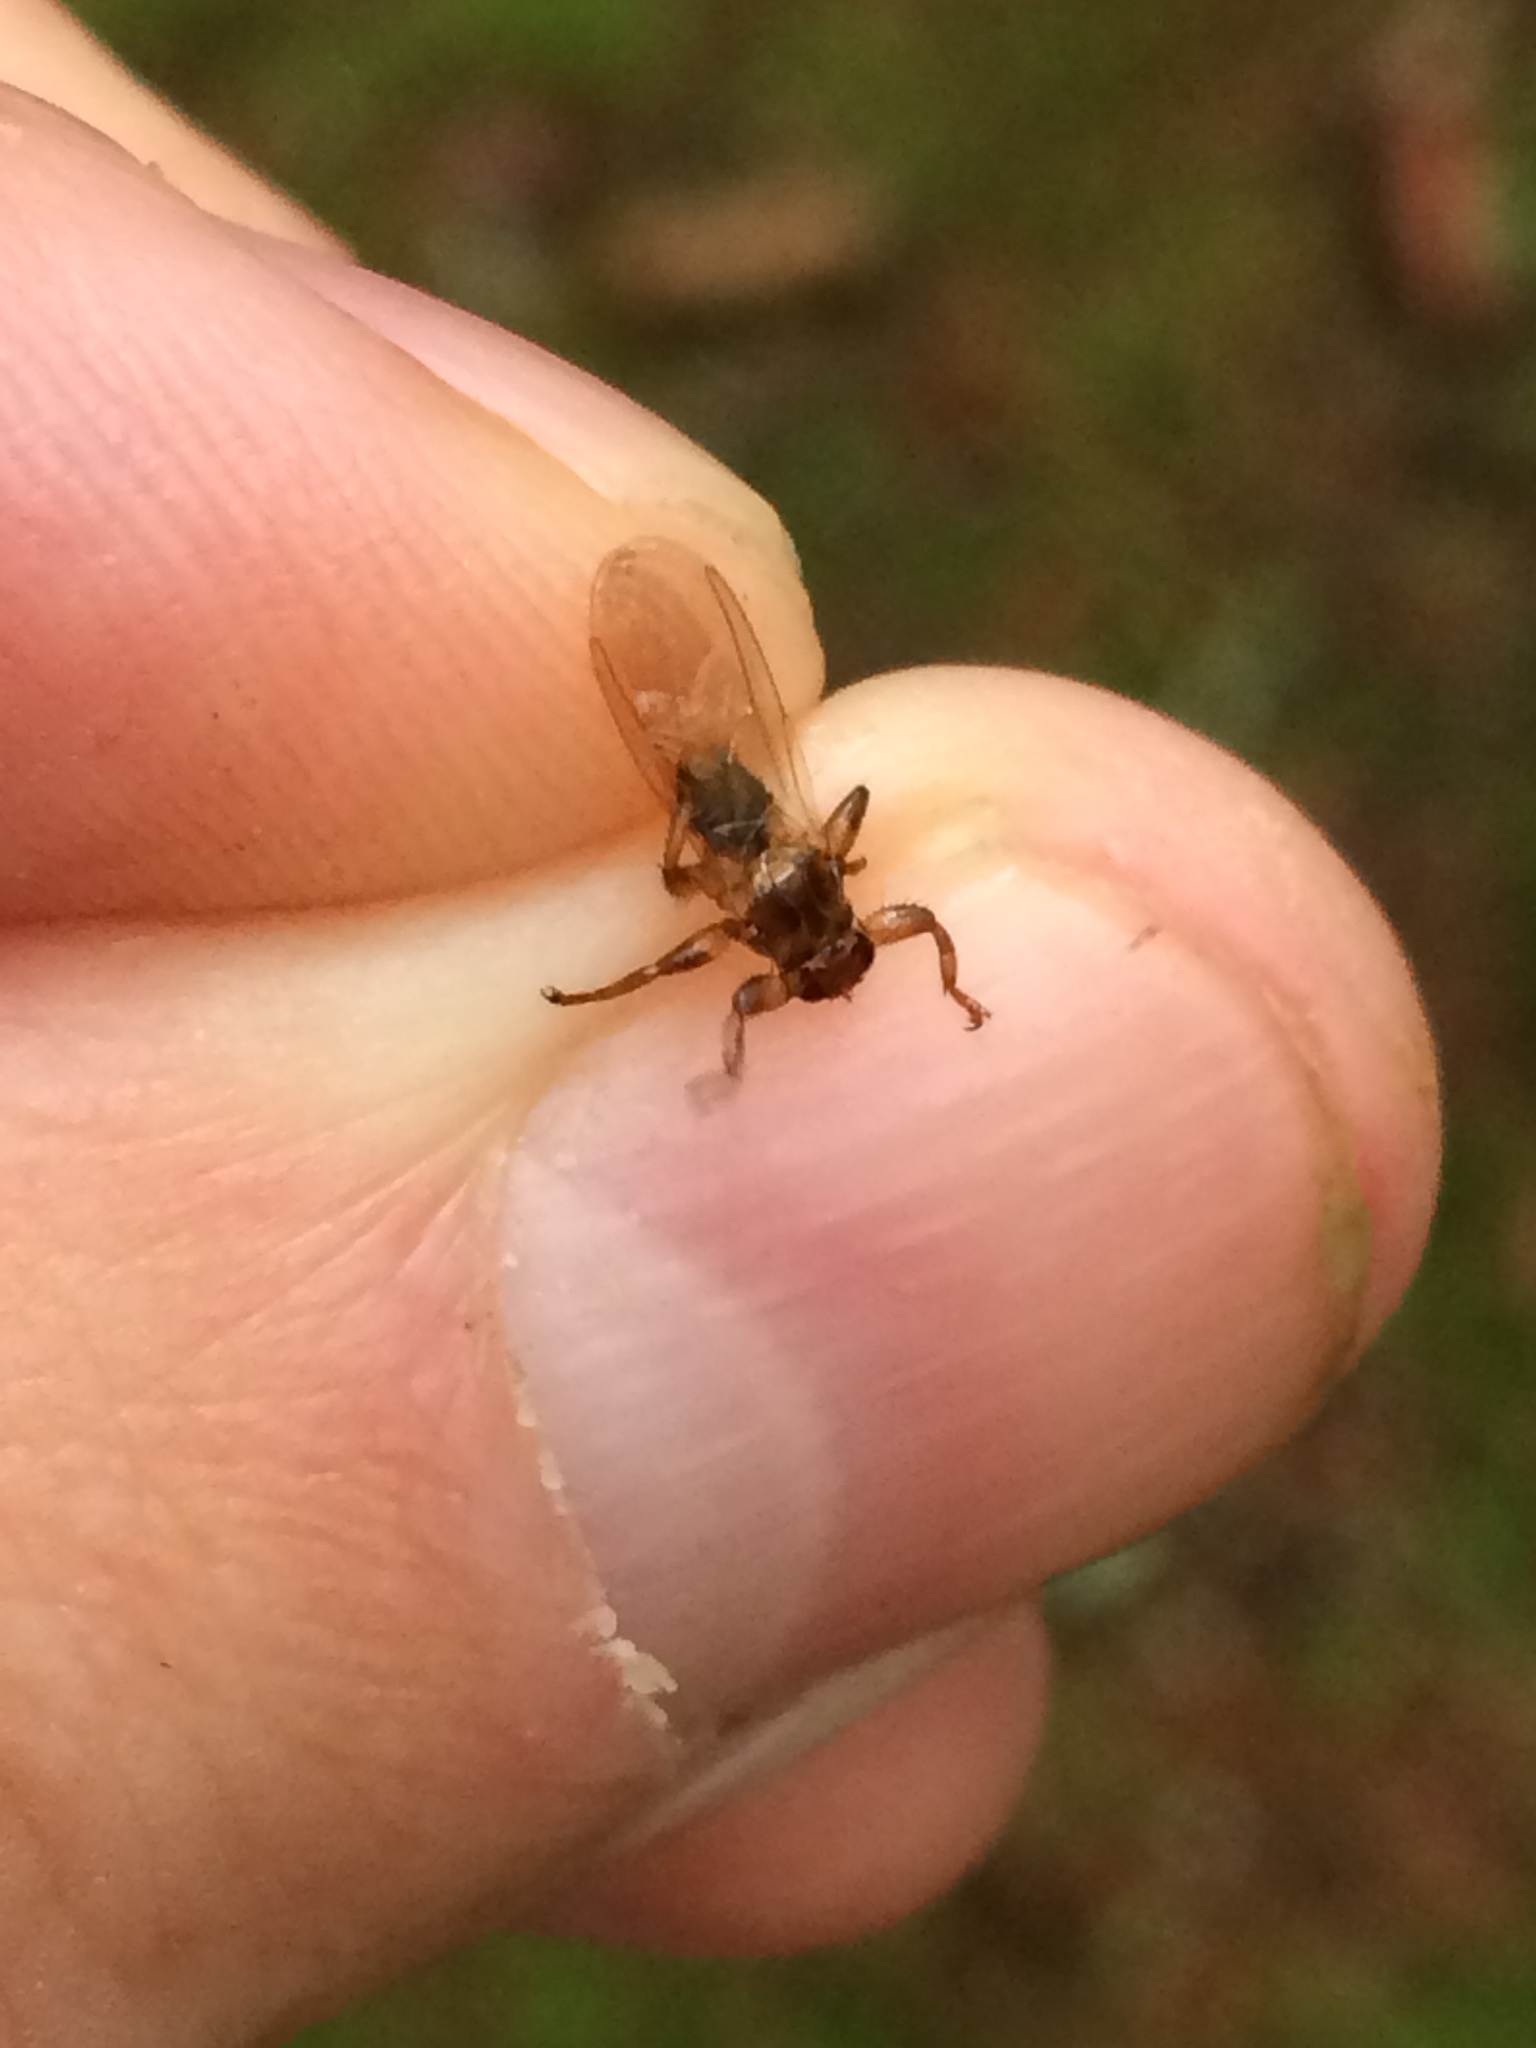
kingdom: Animalia
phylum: Arthropoda
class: Insecta
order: Diptera
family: Hippoboscidae
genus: Lipoptena
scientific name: Lipoptena cervi
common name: Deer ked
